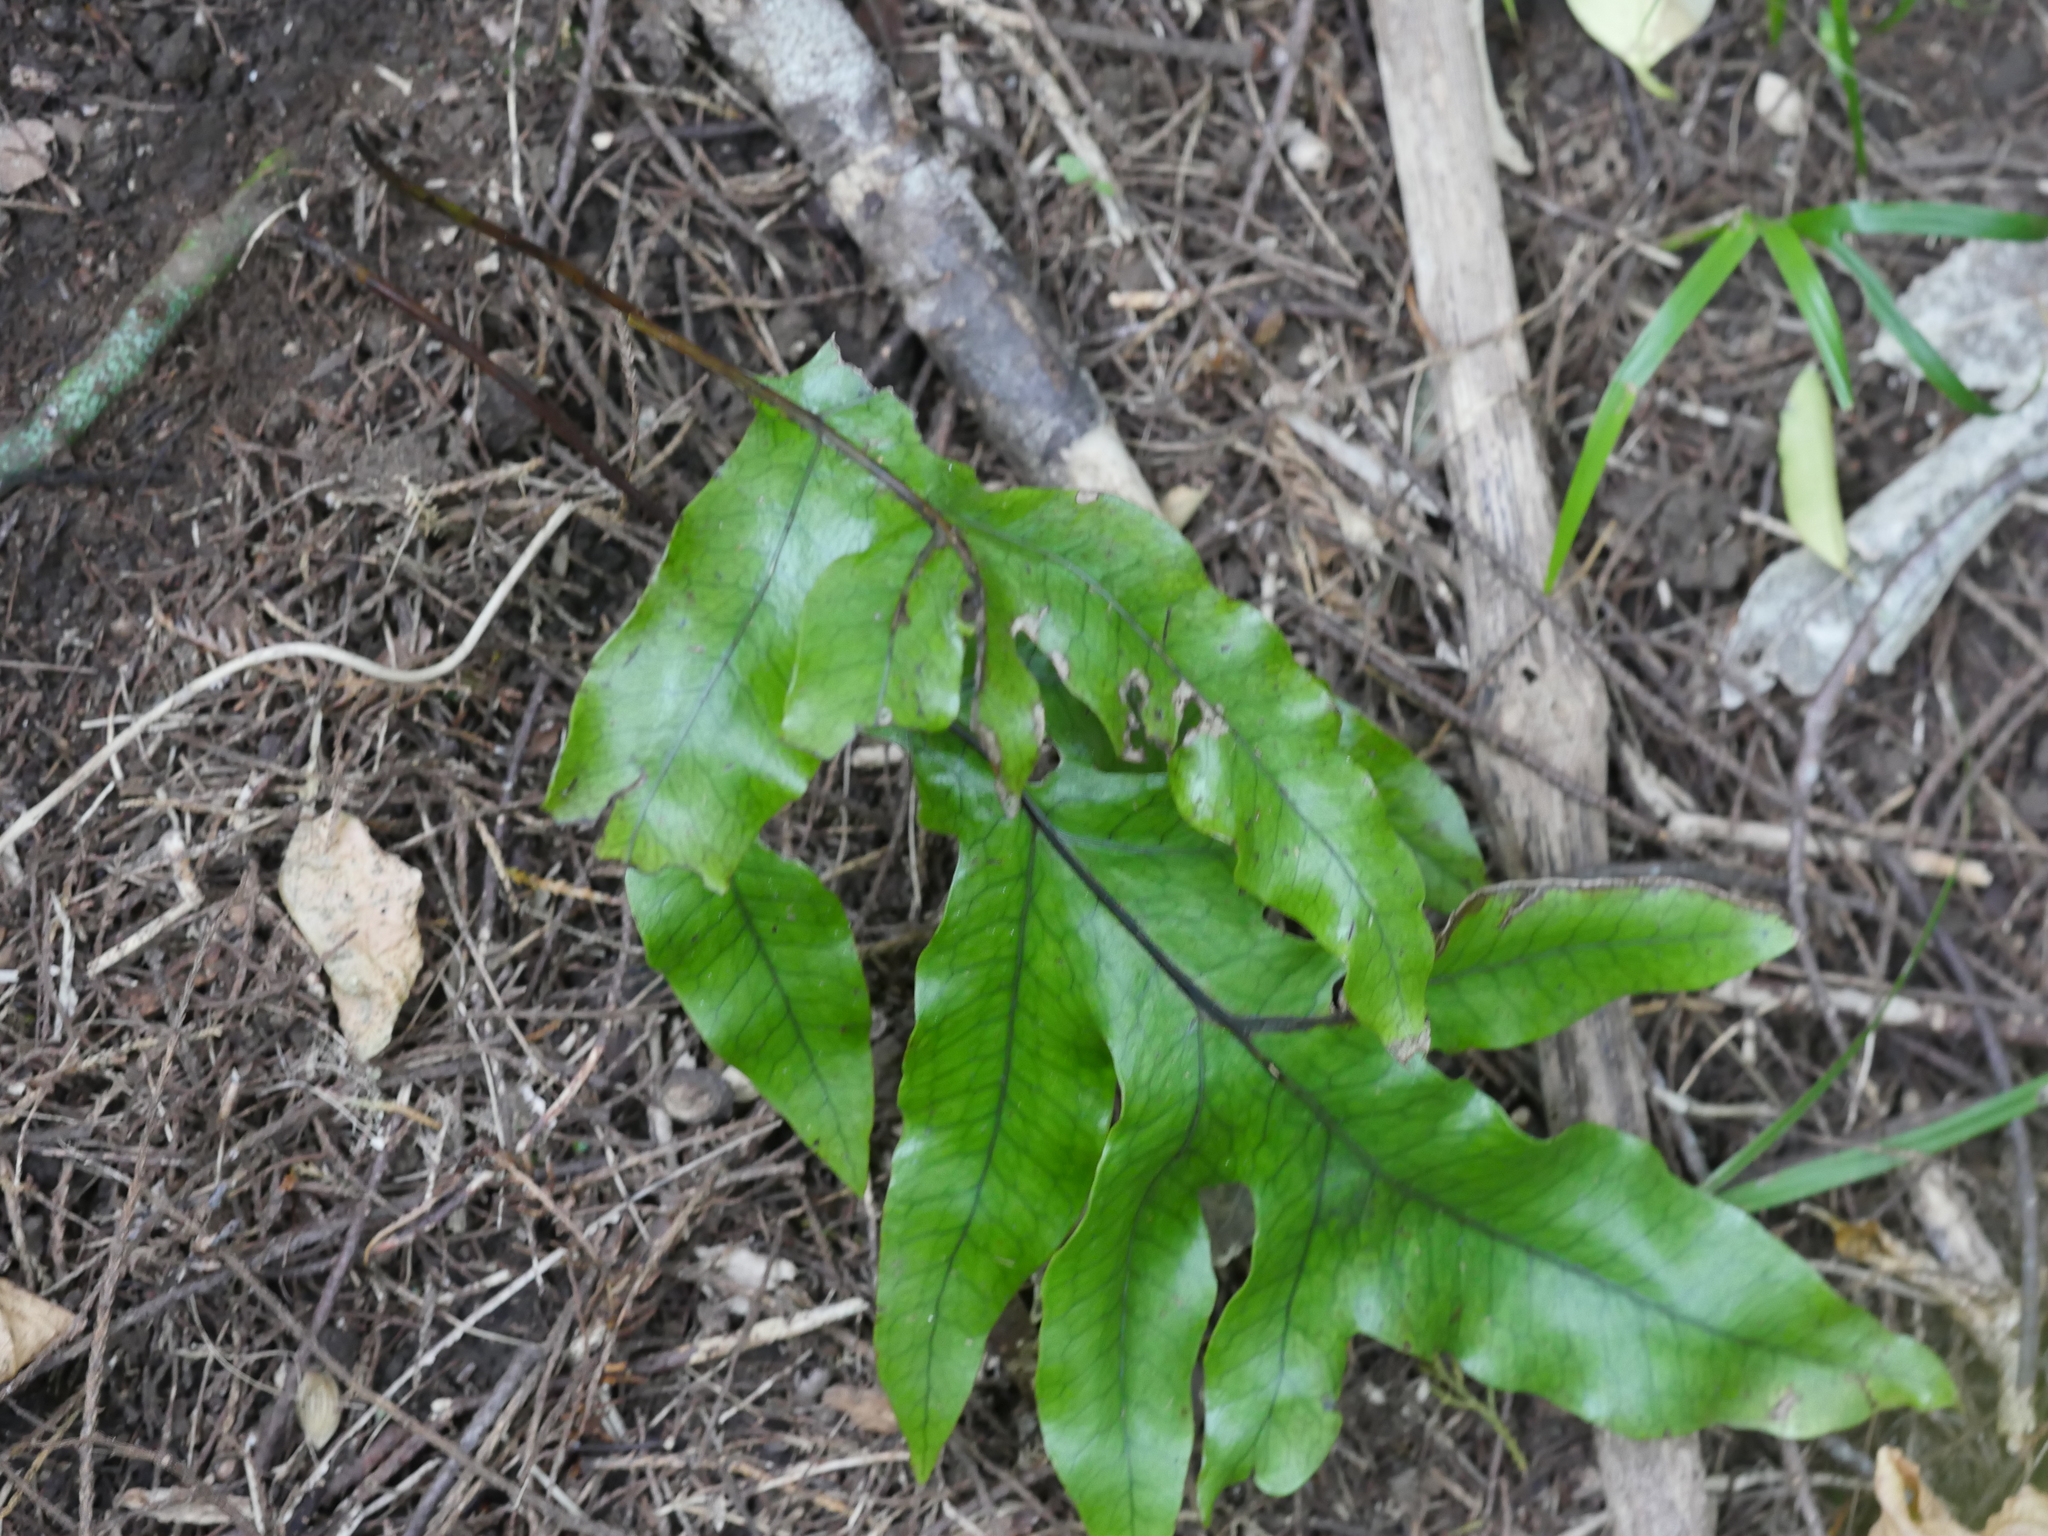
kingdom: Plantae
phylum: Tracheophyta
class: Polypodiopsida
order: Polypodiales
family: Polypodiaceae
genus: Lecanopteris
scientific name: Lecanopteris pustulata
